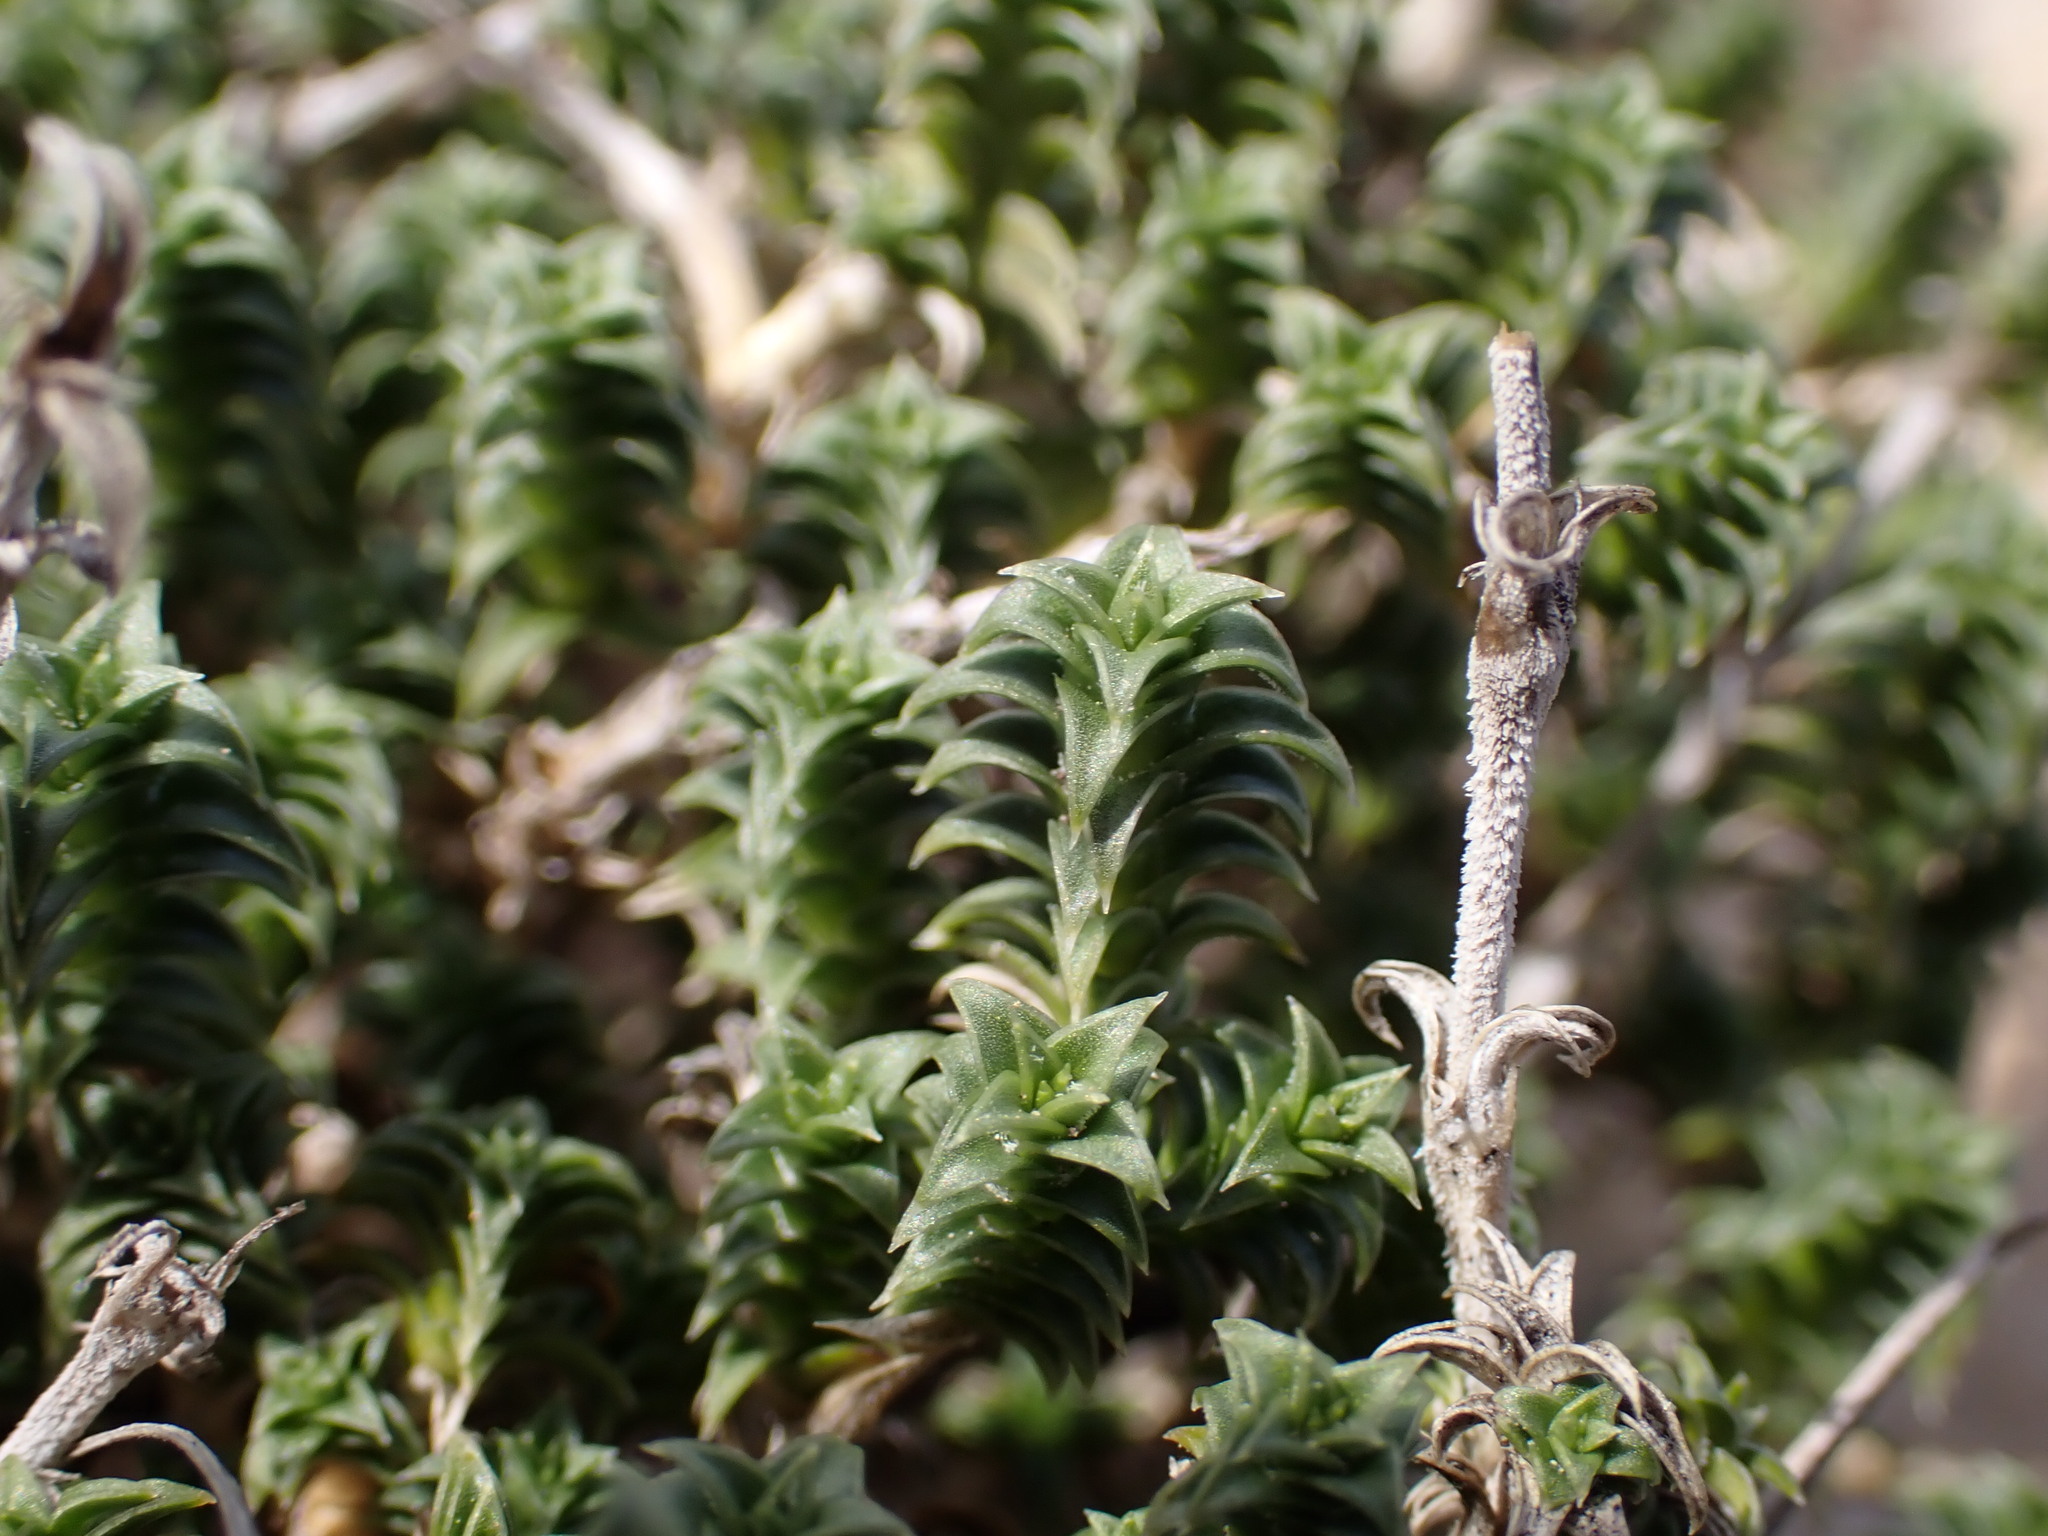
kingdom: Plantae
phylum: Tracheophyta
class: Magnoliopsida
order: Caryophyllales
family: Caryophyllaceae
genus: Arenaria
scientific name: Arenaria aggregata
